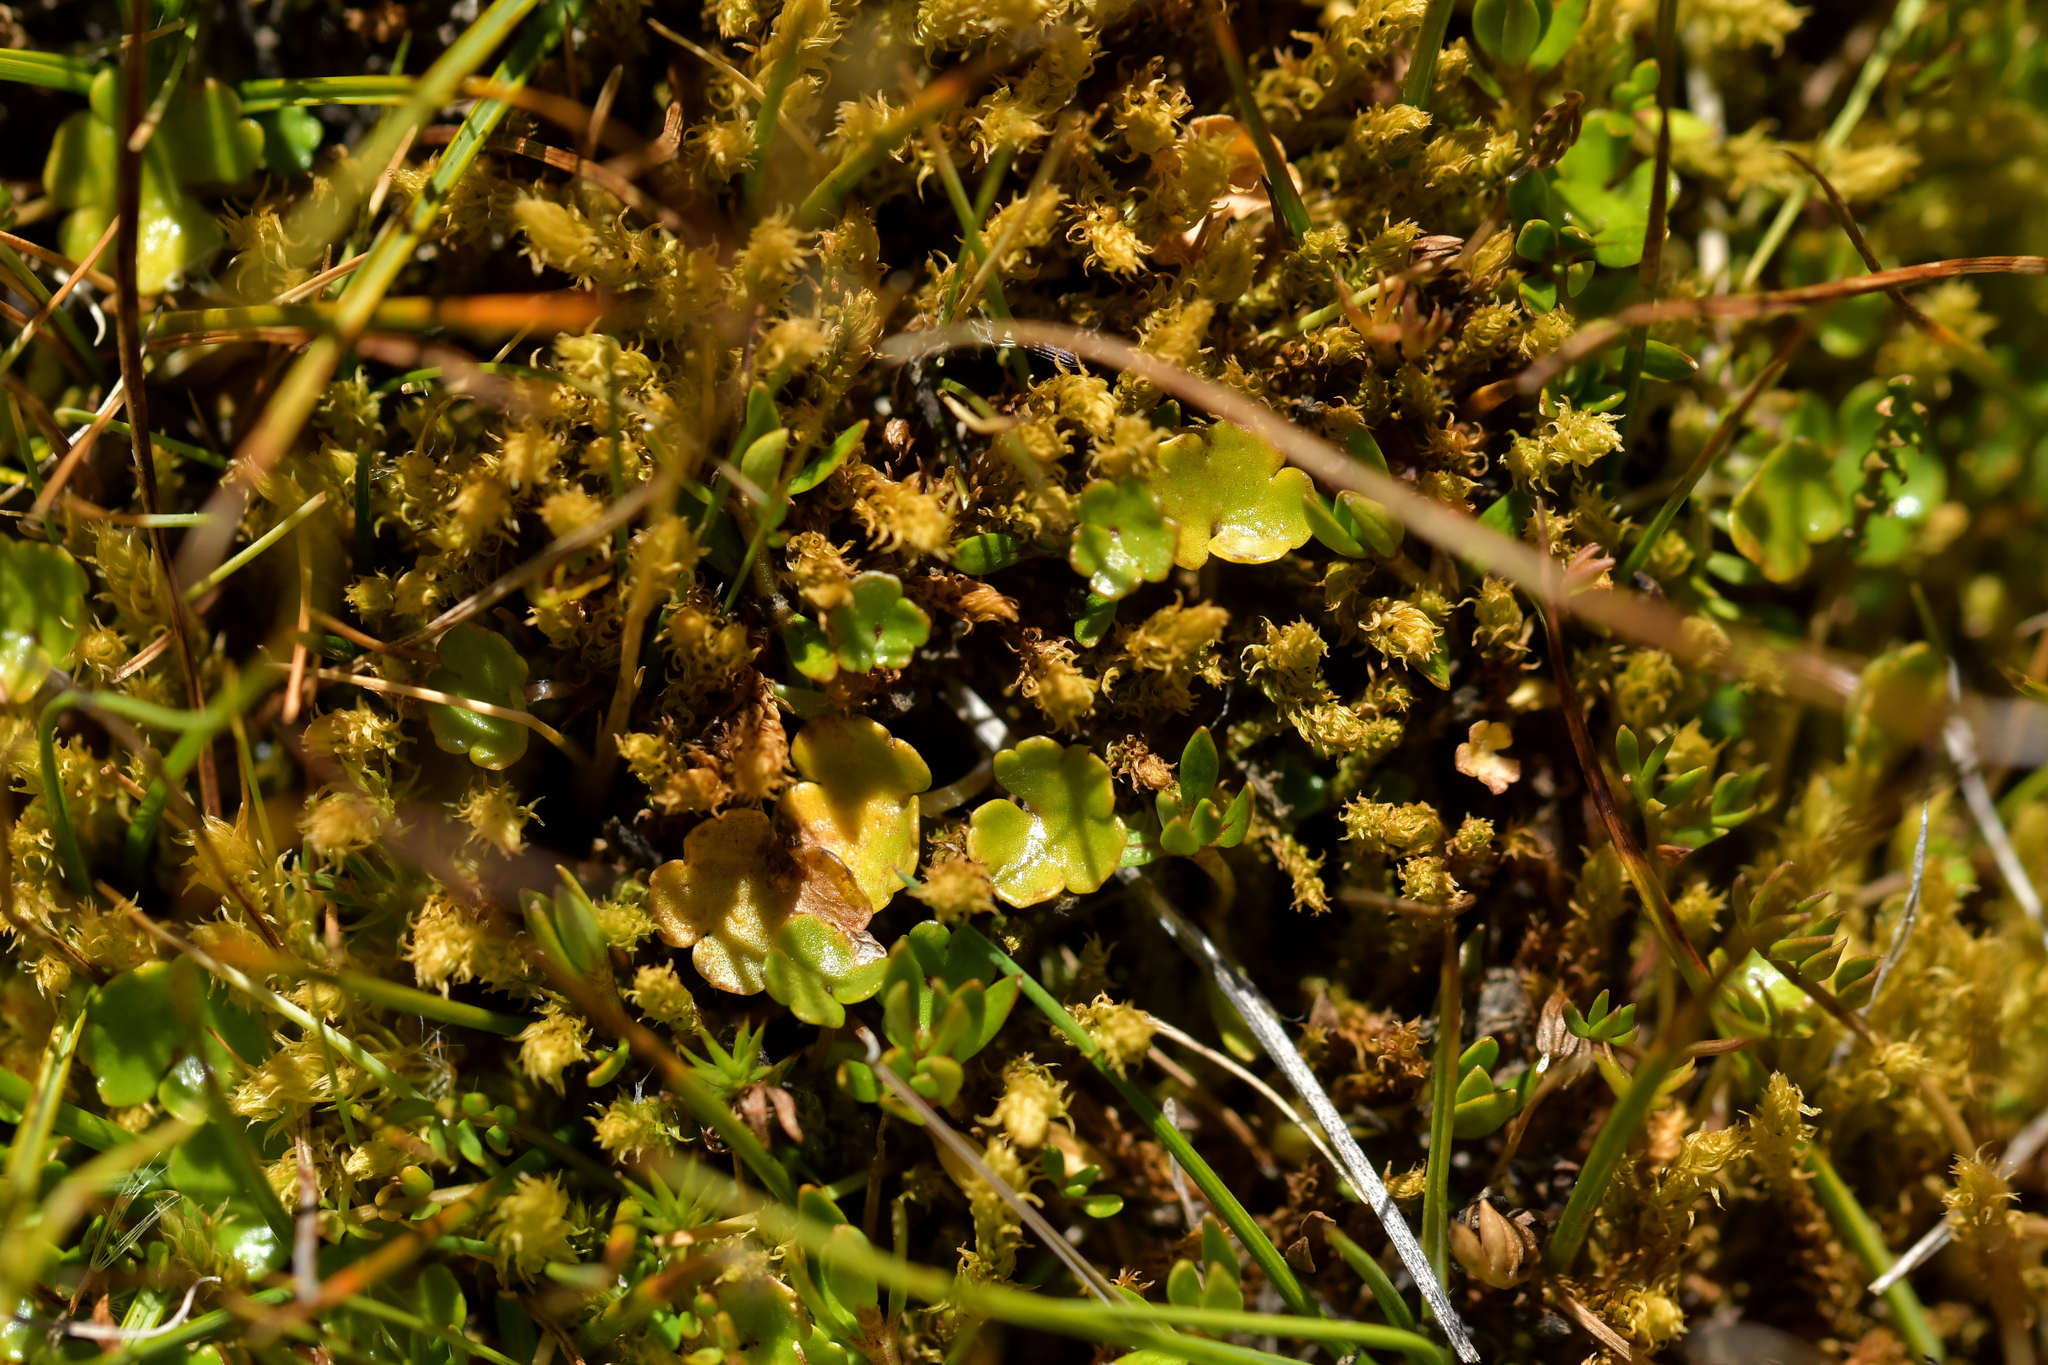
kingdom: Plantae
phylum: Tracheophyta
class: Magnoliopsida
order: Apiales
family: Araliaceae
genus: Hydrocotyle
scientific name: Hydrocotyle novae-zeelandiae
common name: New zealand pennywort
